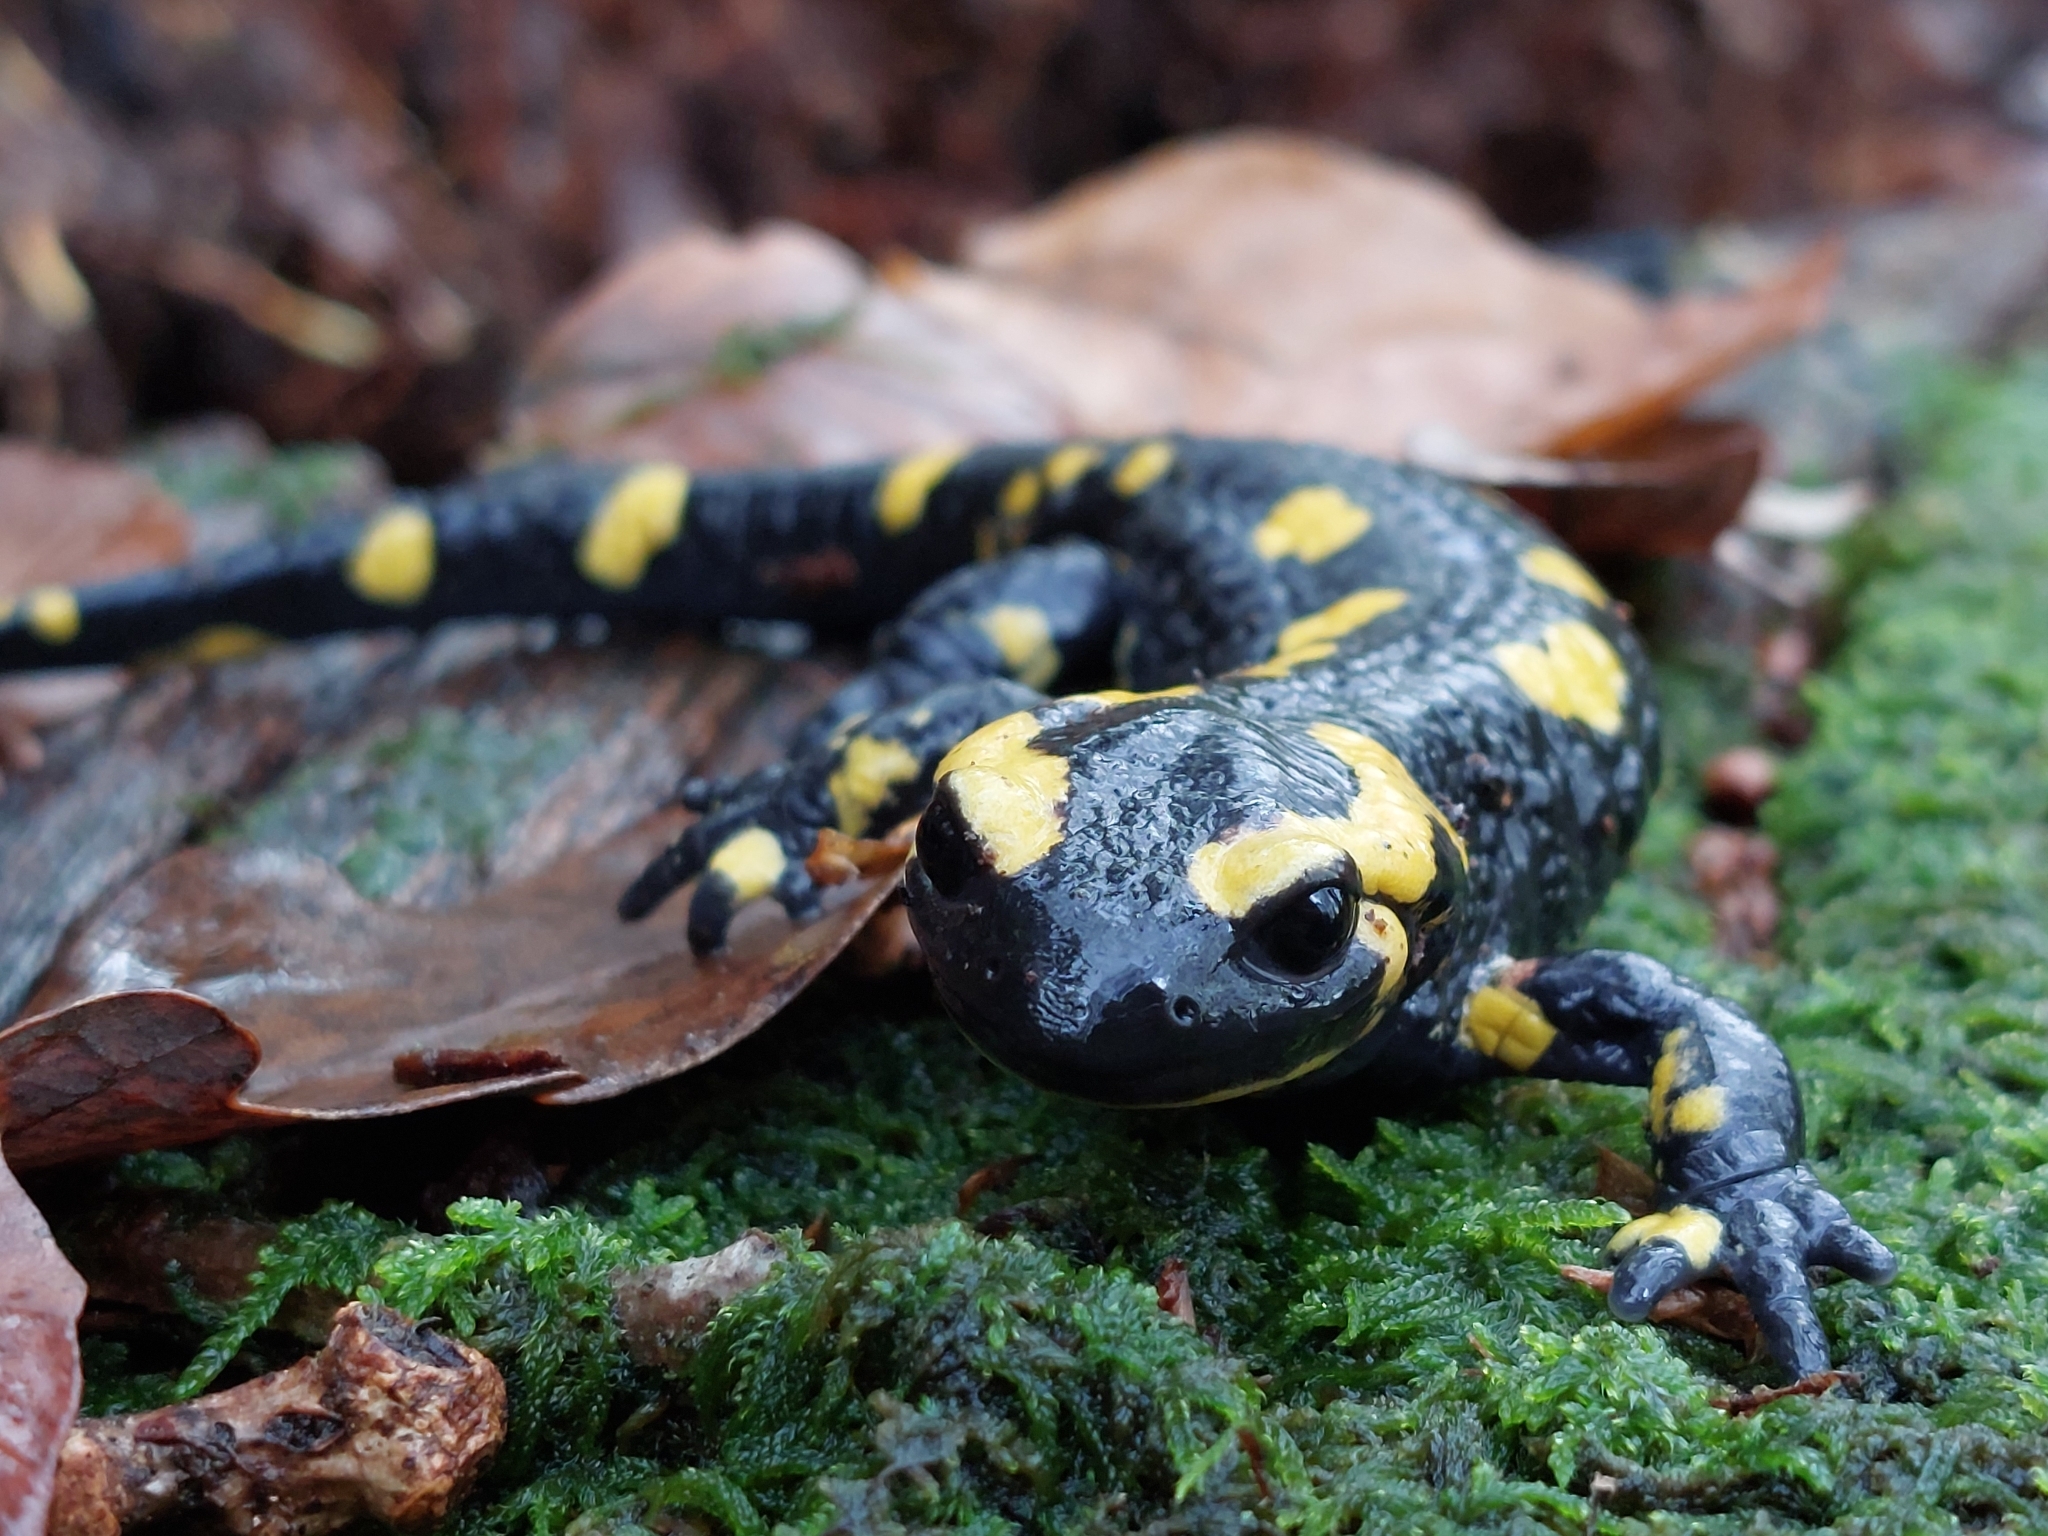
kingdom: Animalia
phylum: Chordata
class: Amphibia
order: Caudata
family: Salamandridae
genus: Salamandra
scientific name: Salamandra salamandra
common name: Fire salamander
